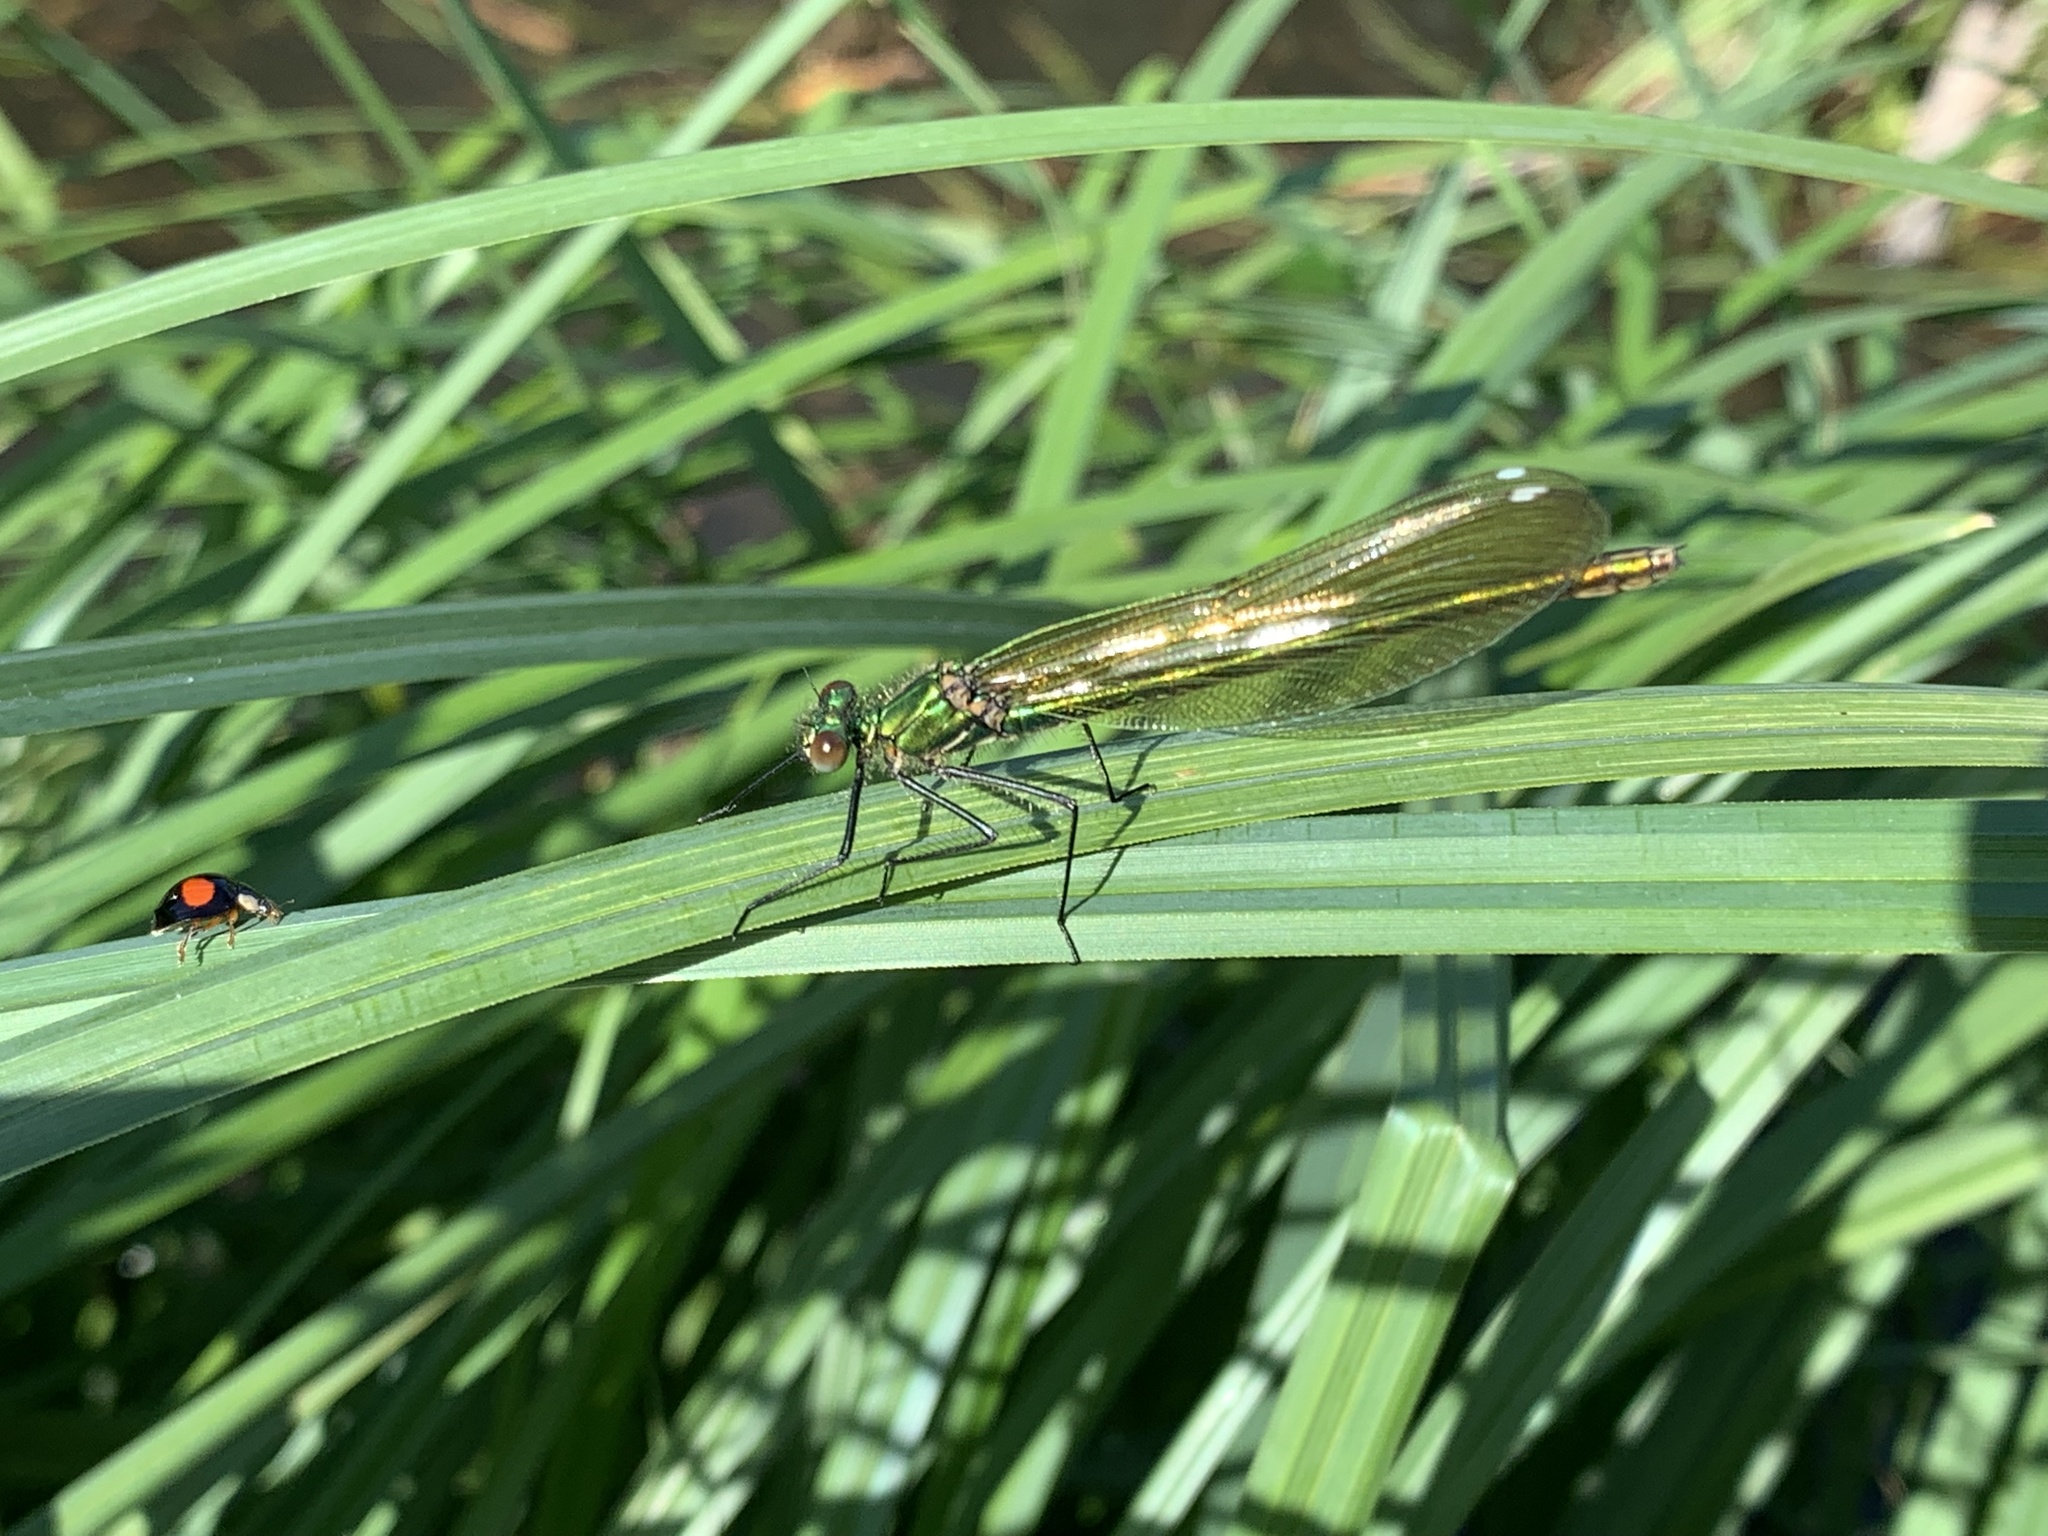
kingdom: Animalia
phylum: Arthropoda
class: Insecta
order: Odonata
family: Calopterygidae
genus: Calopteryx
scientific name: Calopteryx splendens
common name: Banded demoiselle
